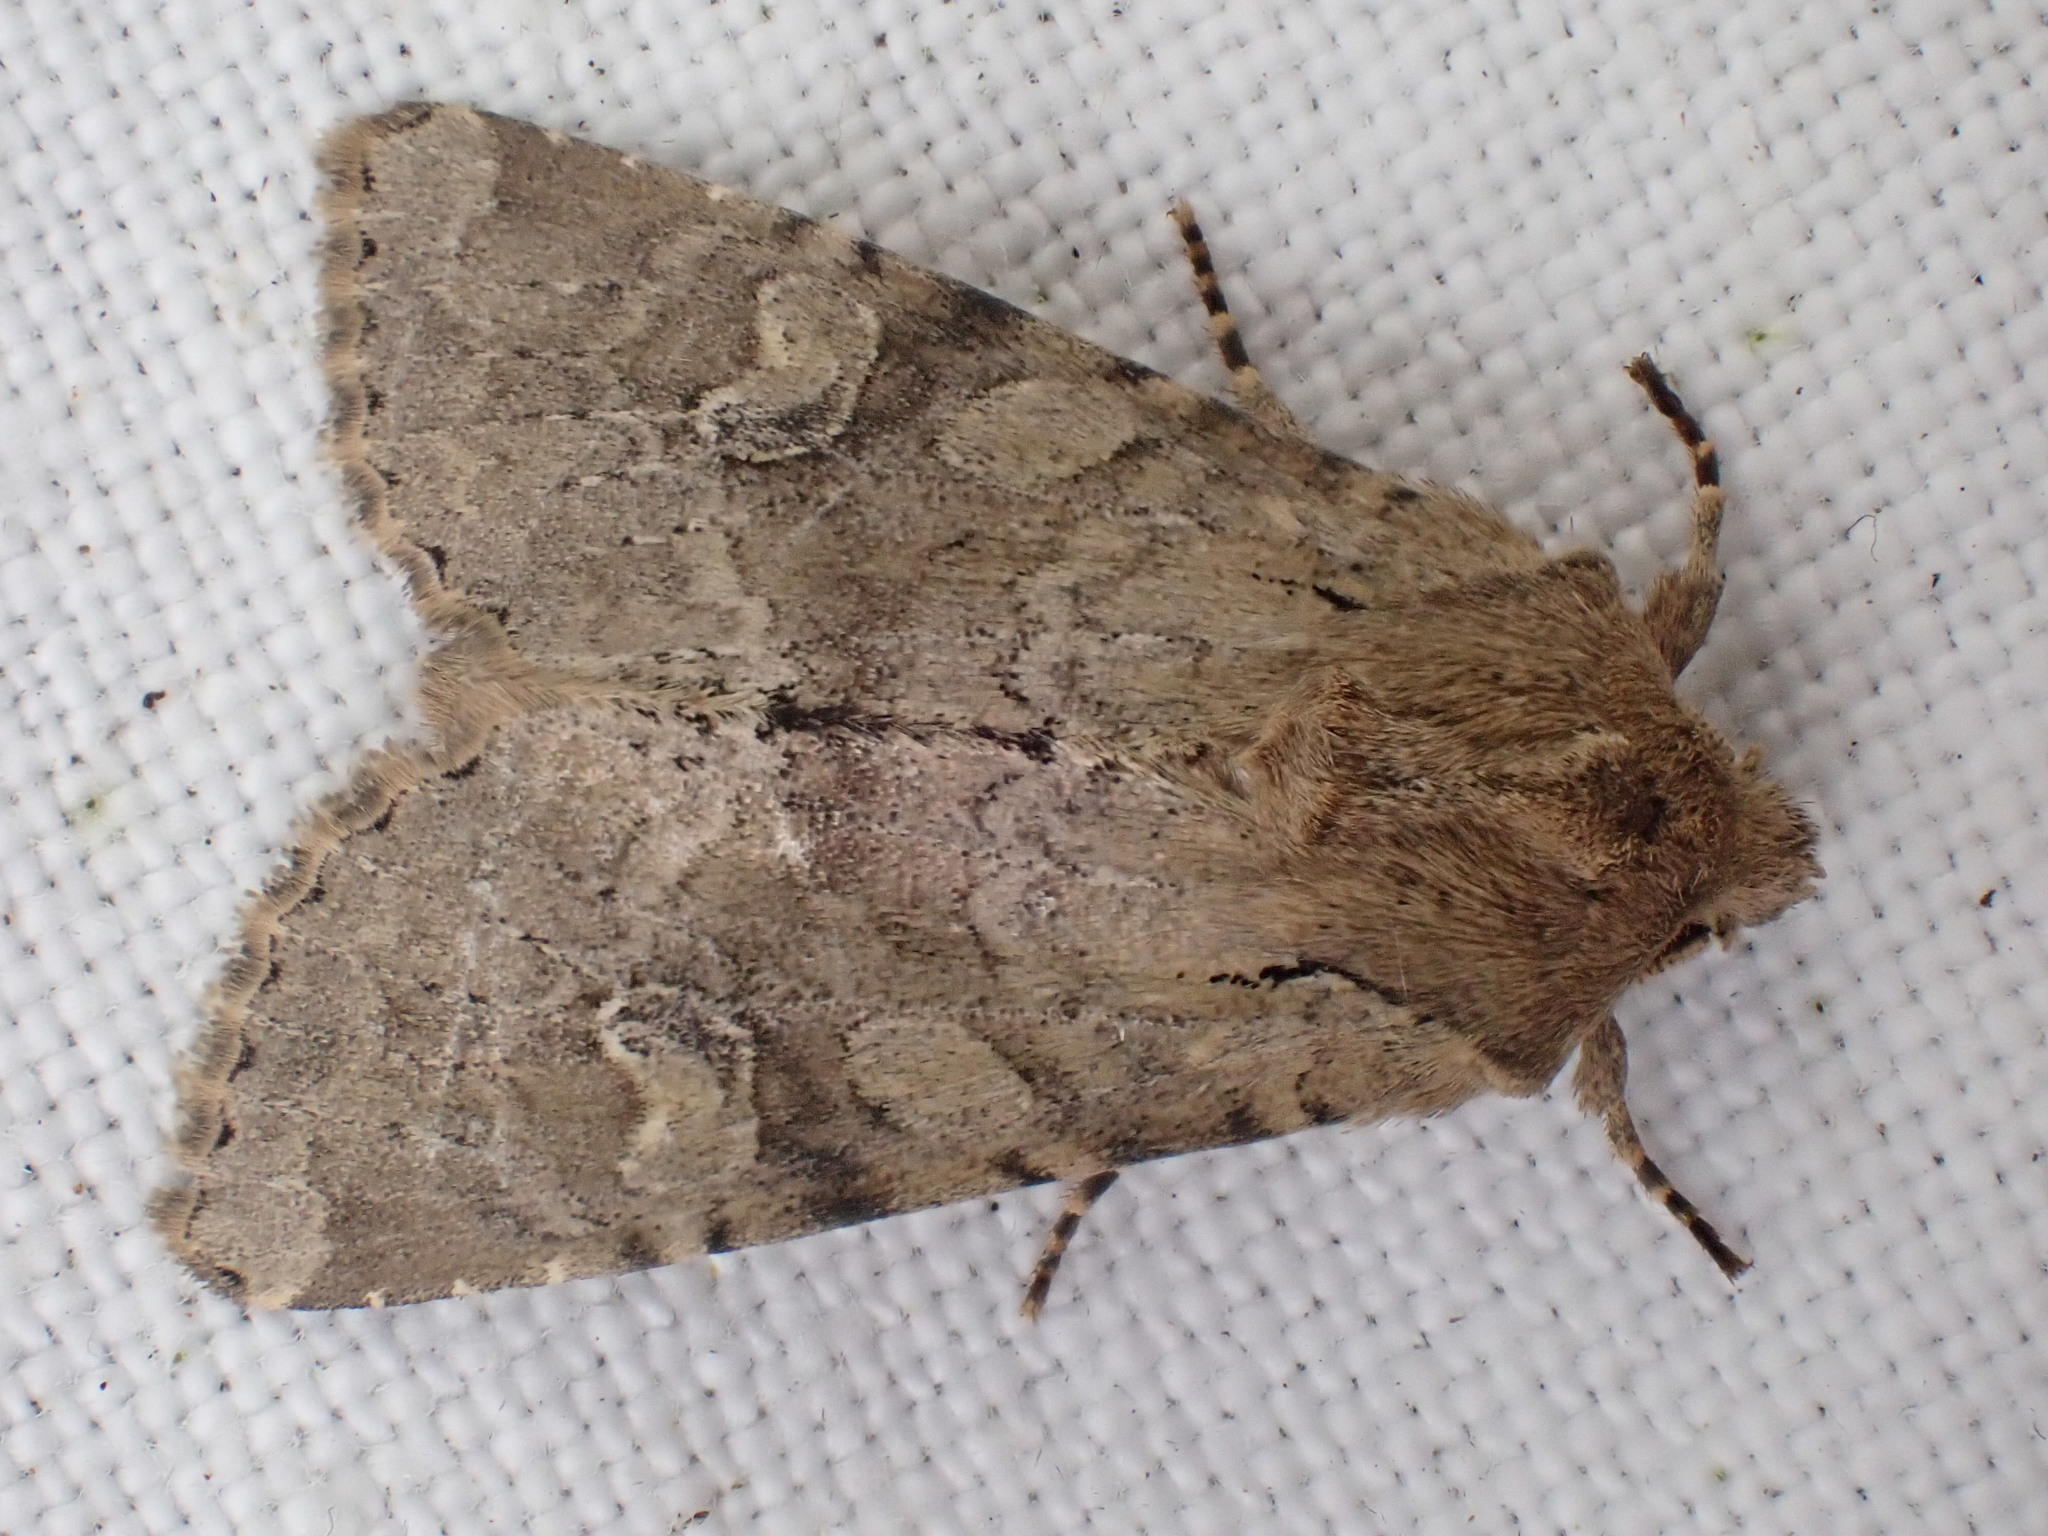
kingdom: Animalia
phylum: Arthropoda
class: Insecta
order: Lepidoptera
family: Noctuidae
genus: Apamea
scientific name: Apamea sordens
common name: Rustic shoulder-knot
